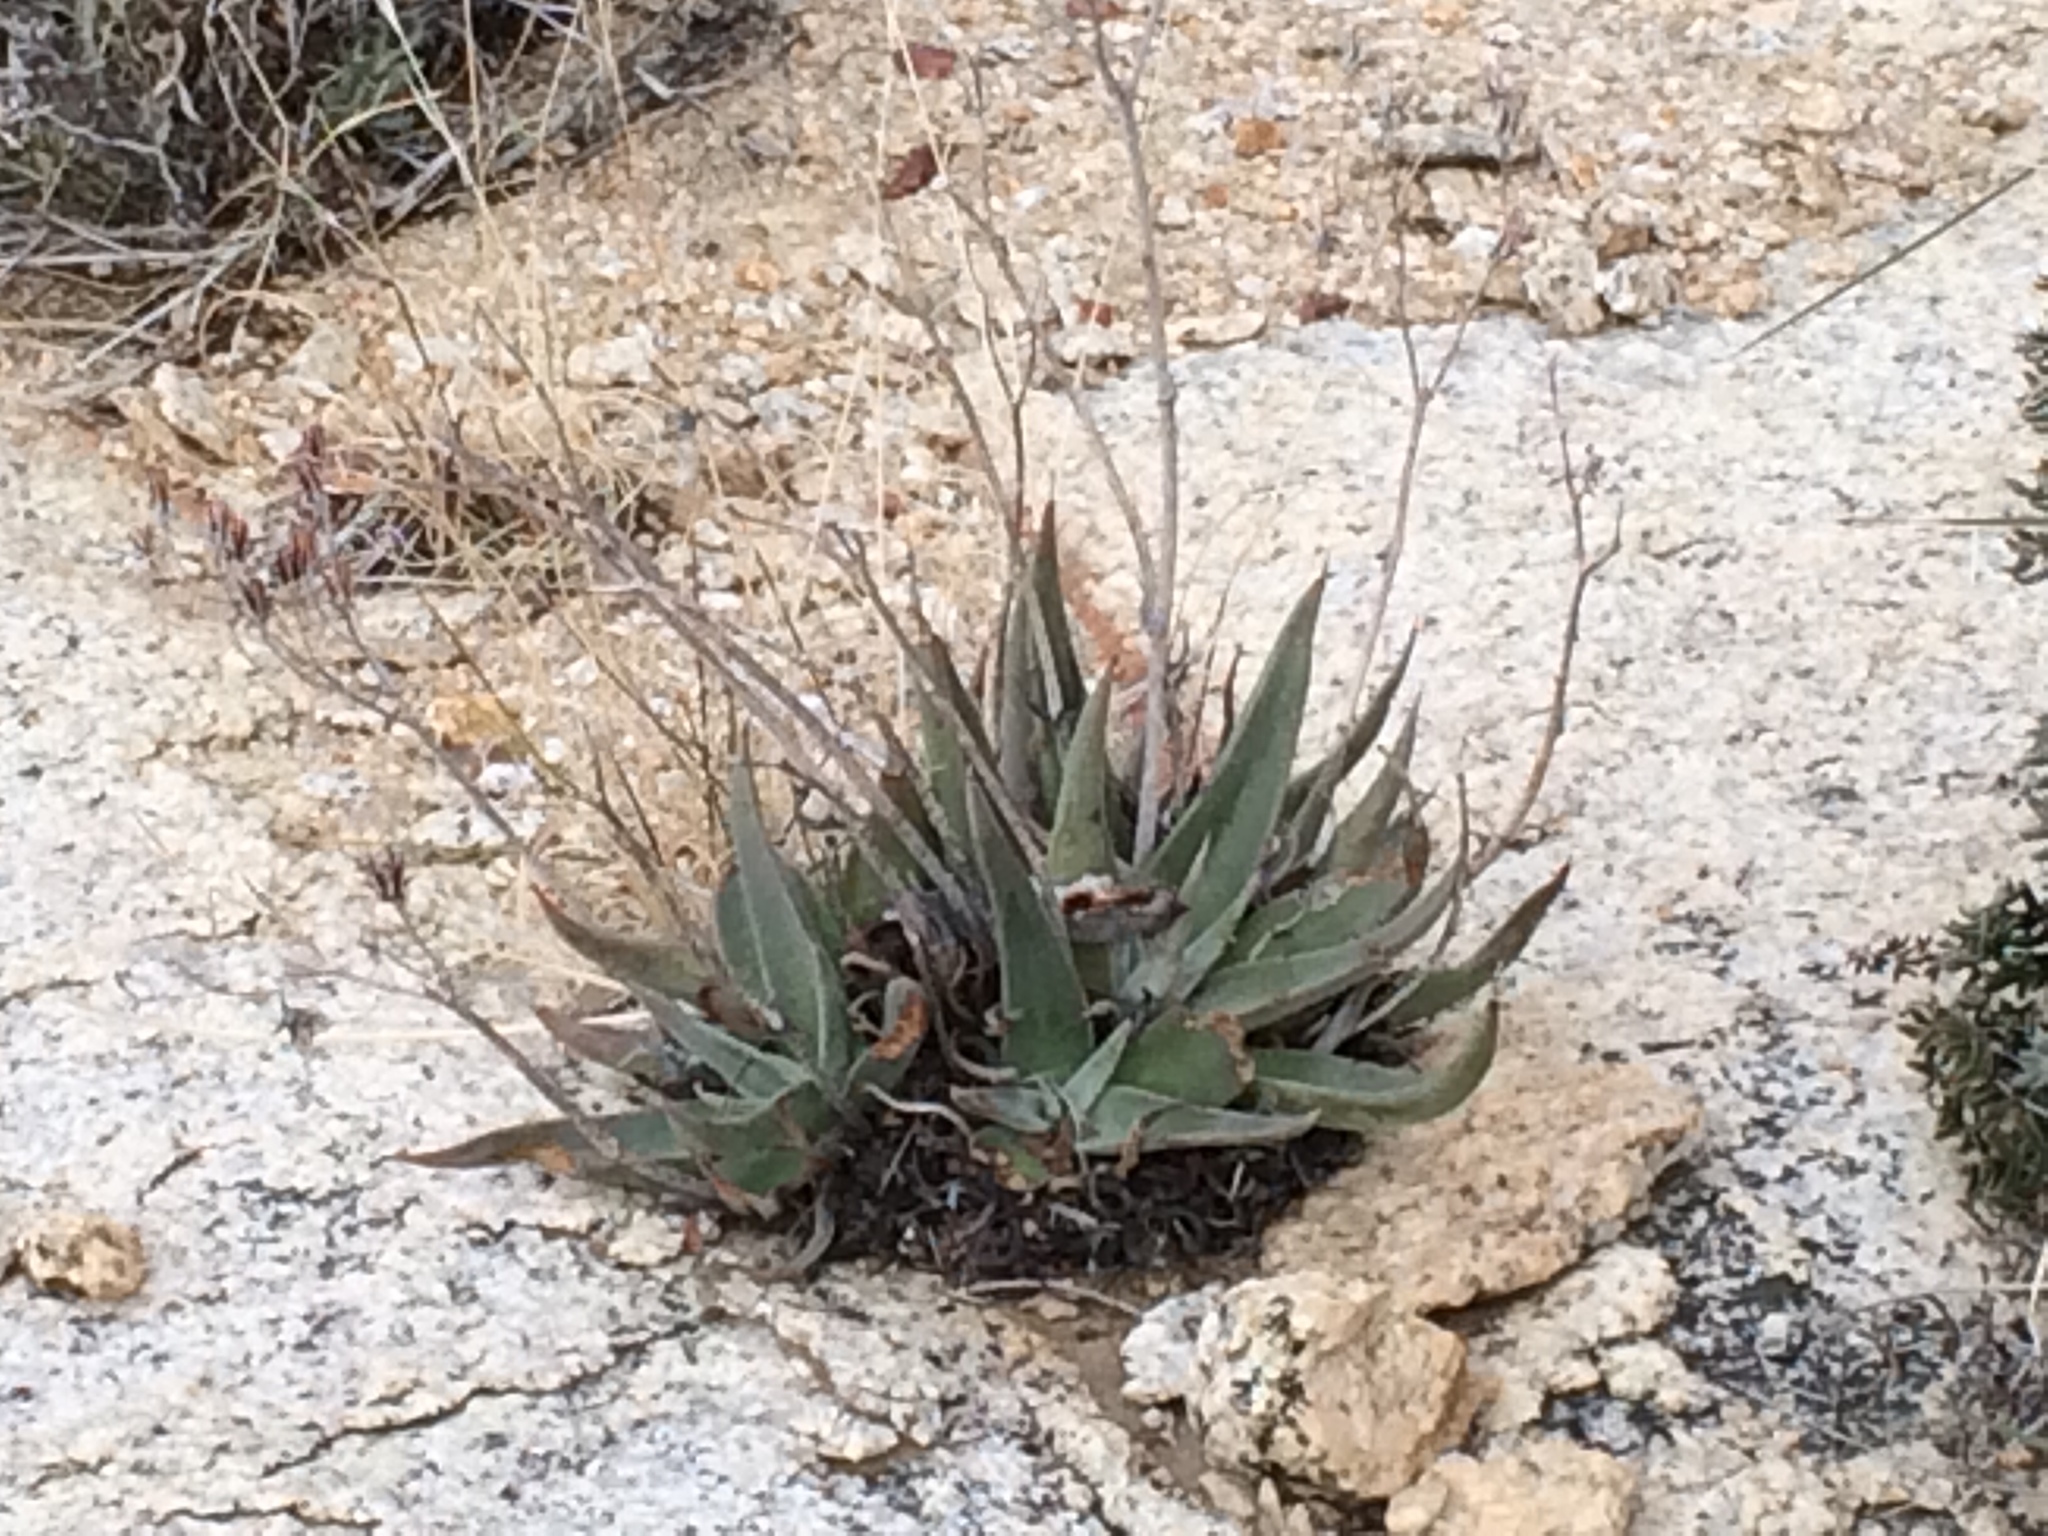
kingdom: Plantae
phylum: Tracheophyta
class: Magnoliopsida
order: Saxifragales
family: Crassulaceae
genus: Dudleya
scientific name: Dudleya saxosa
